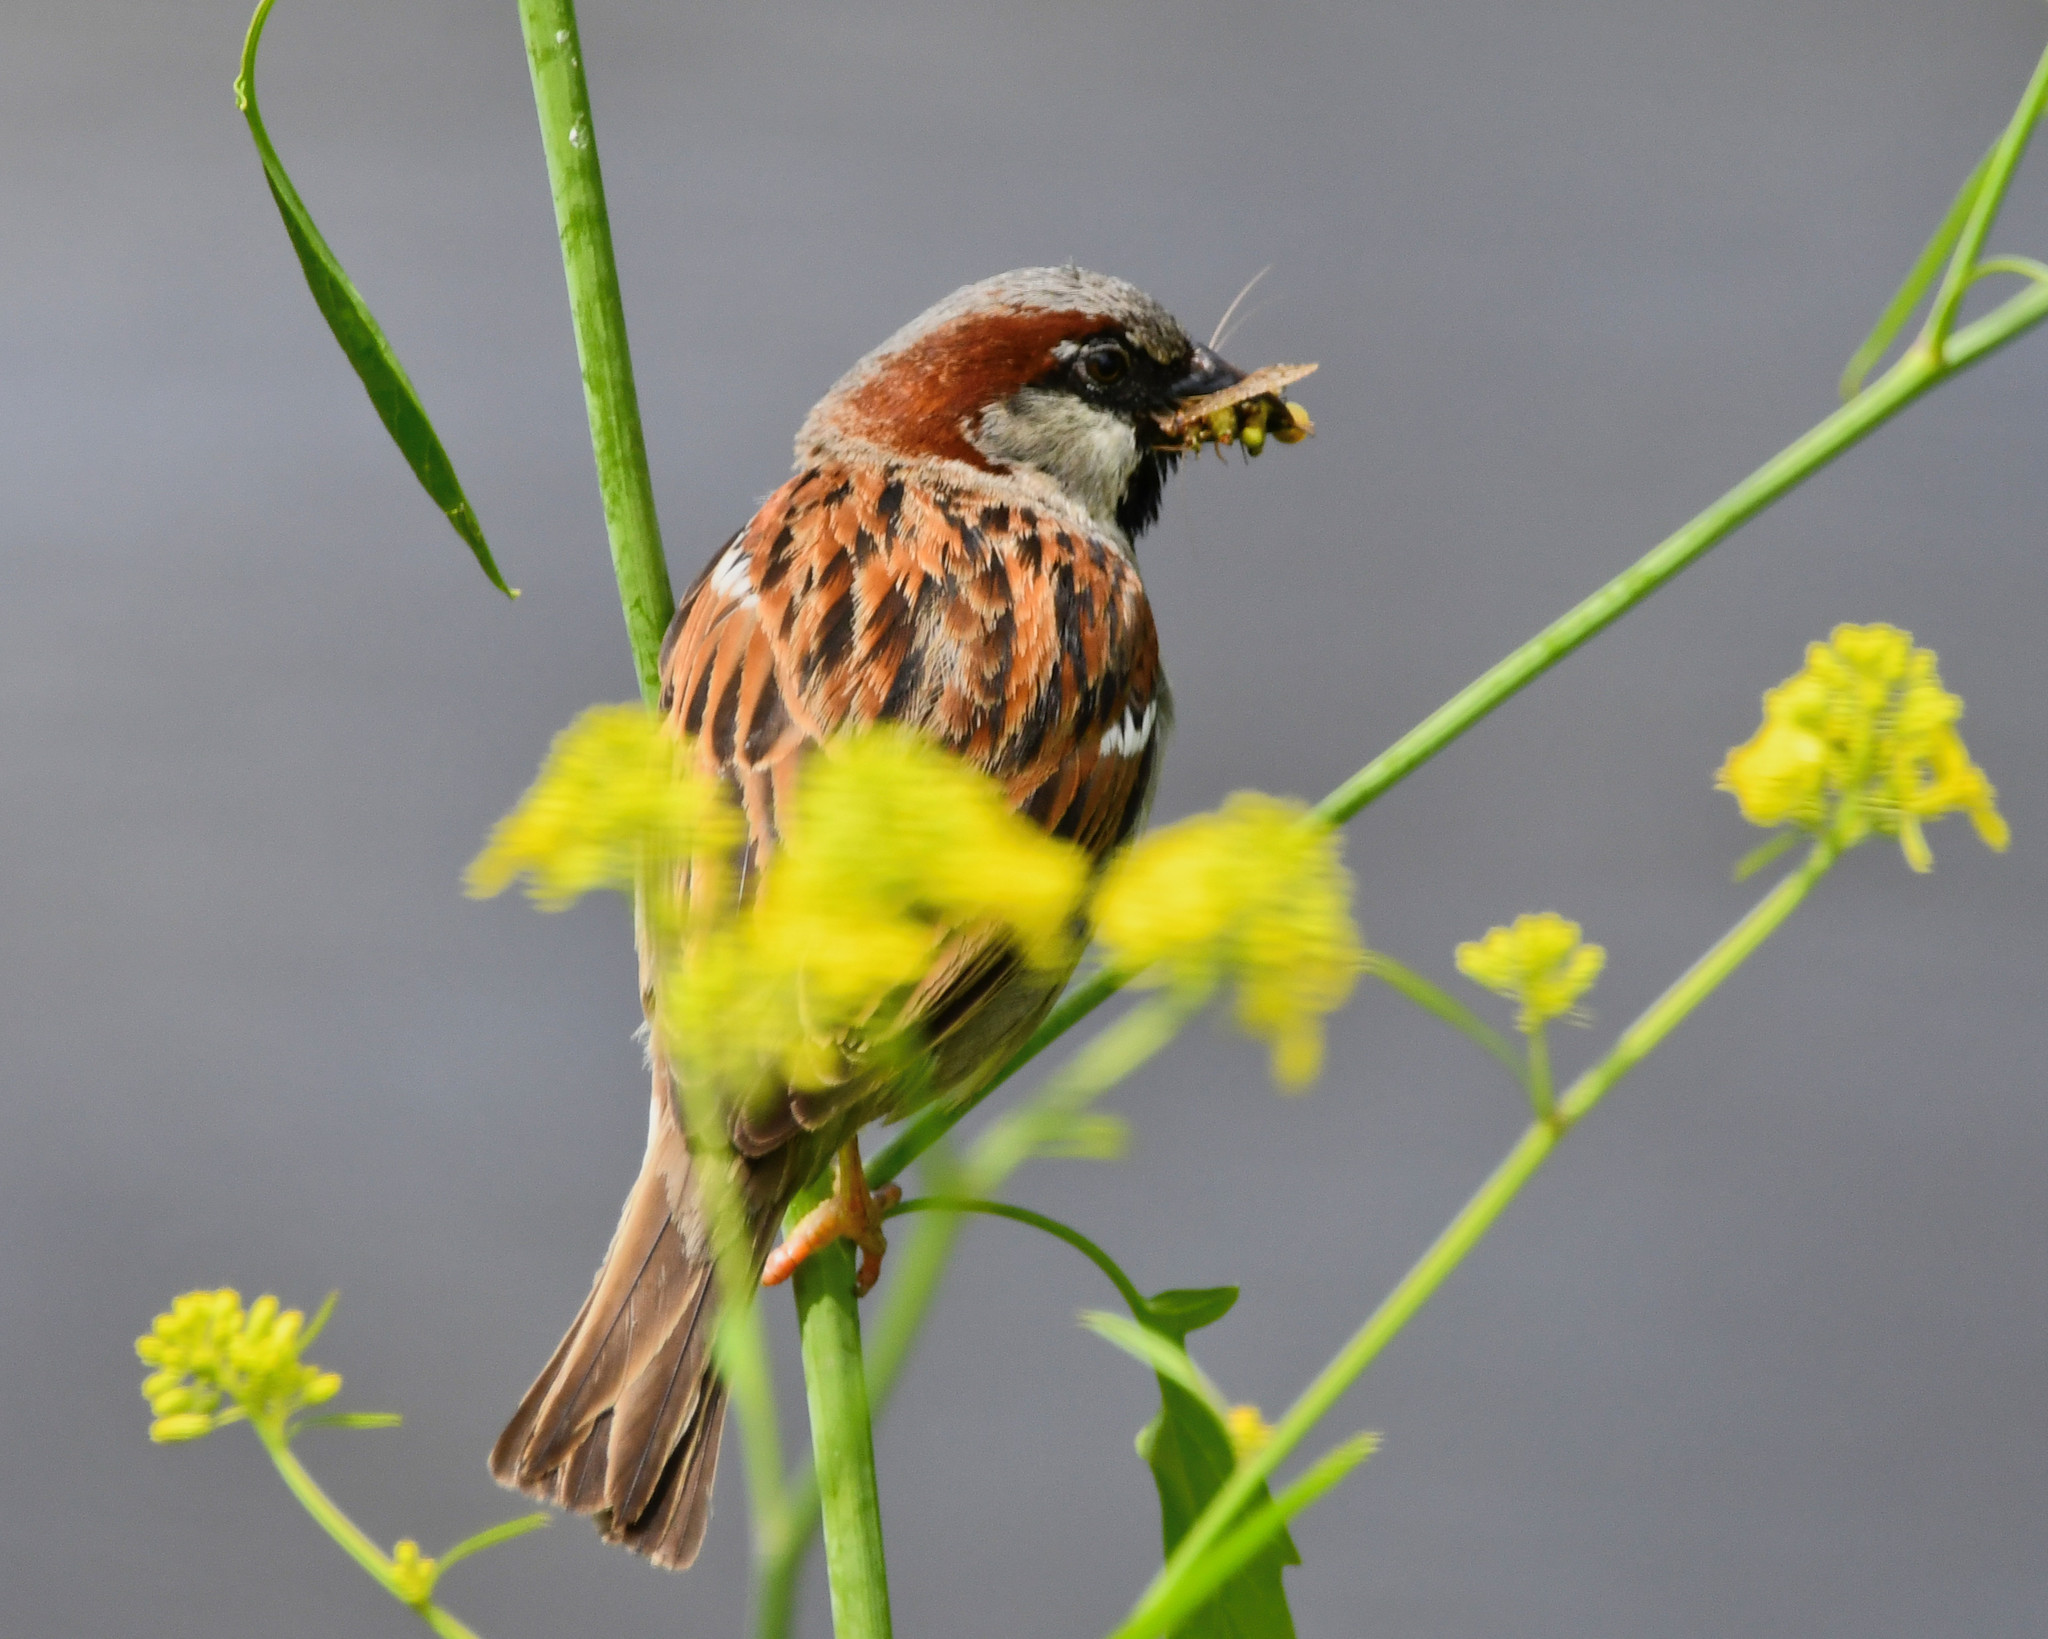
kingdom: Animalia
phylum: Chordata
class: Aves
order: Passeriformes
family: Passeridae
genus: Passer
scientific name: Passer domesticus
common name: House sparrow
